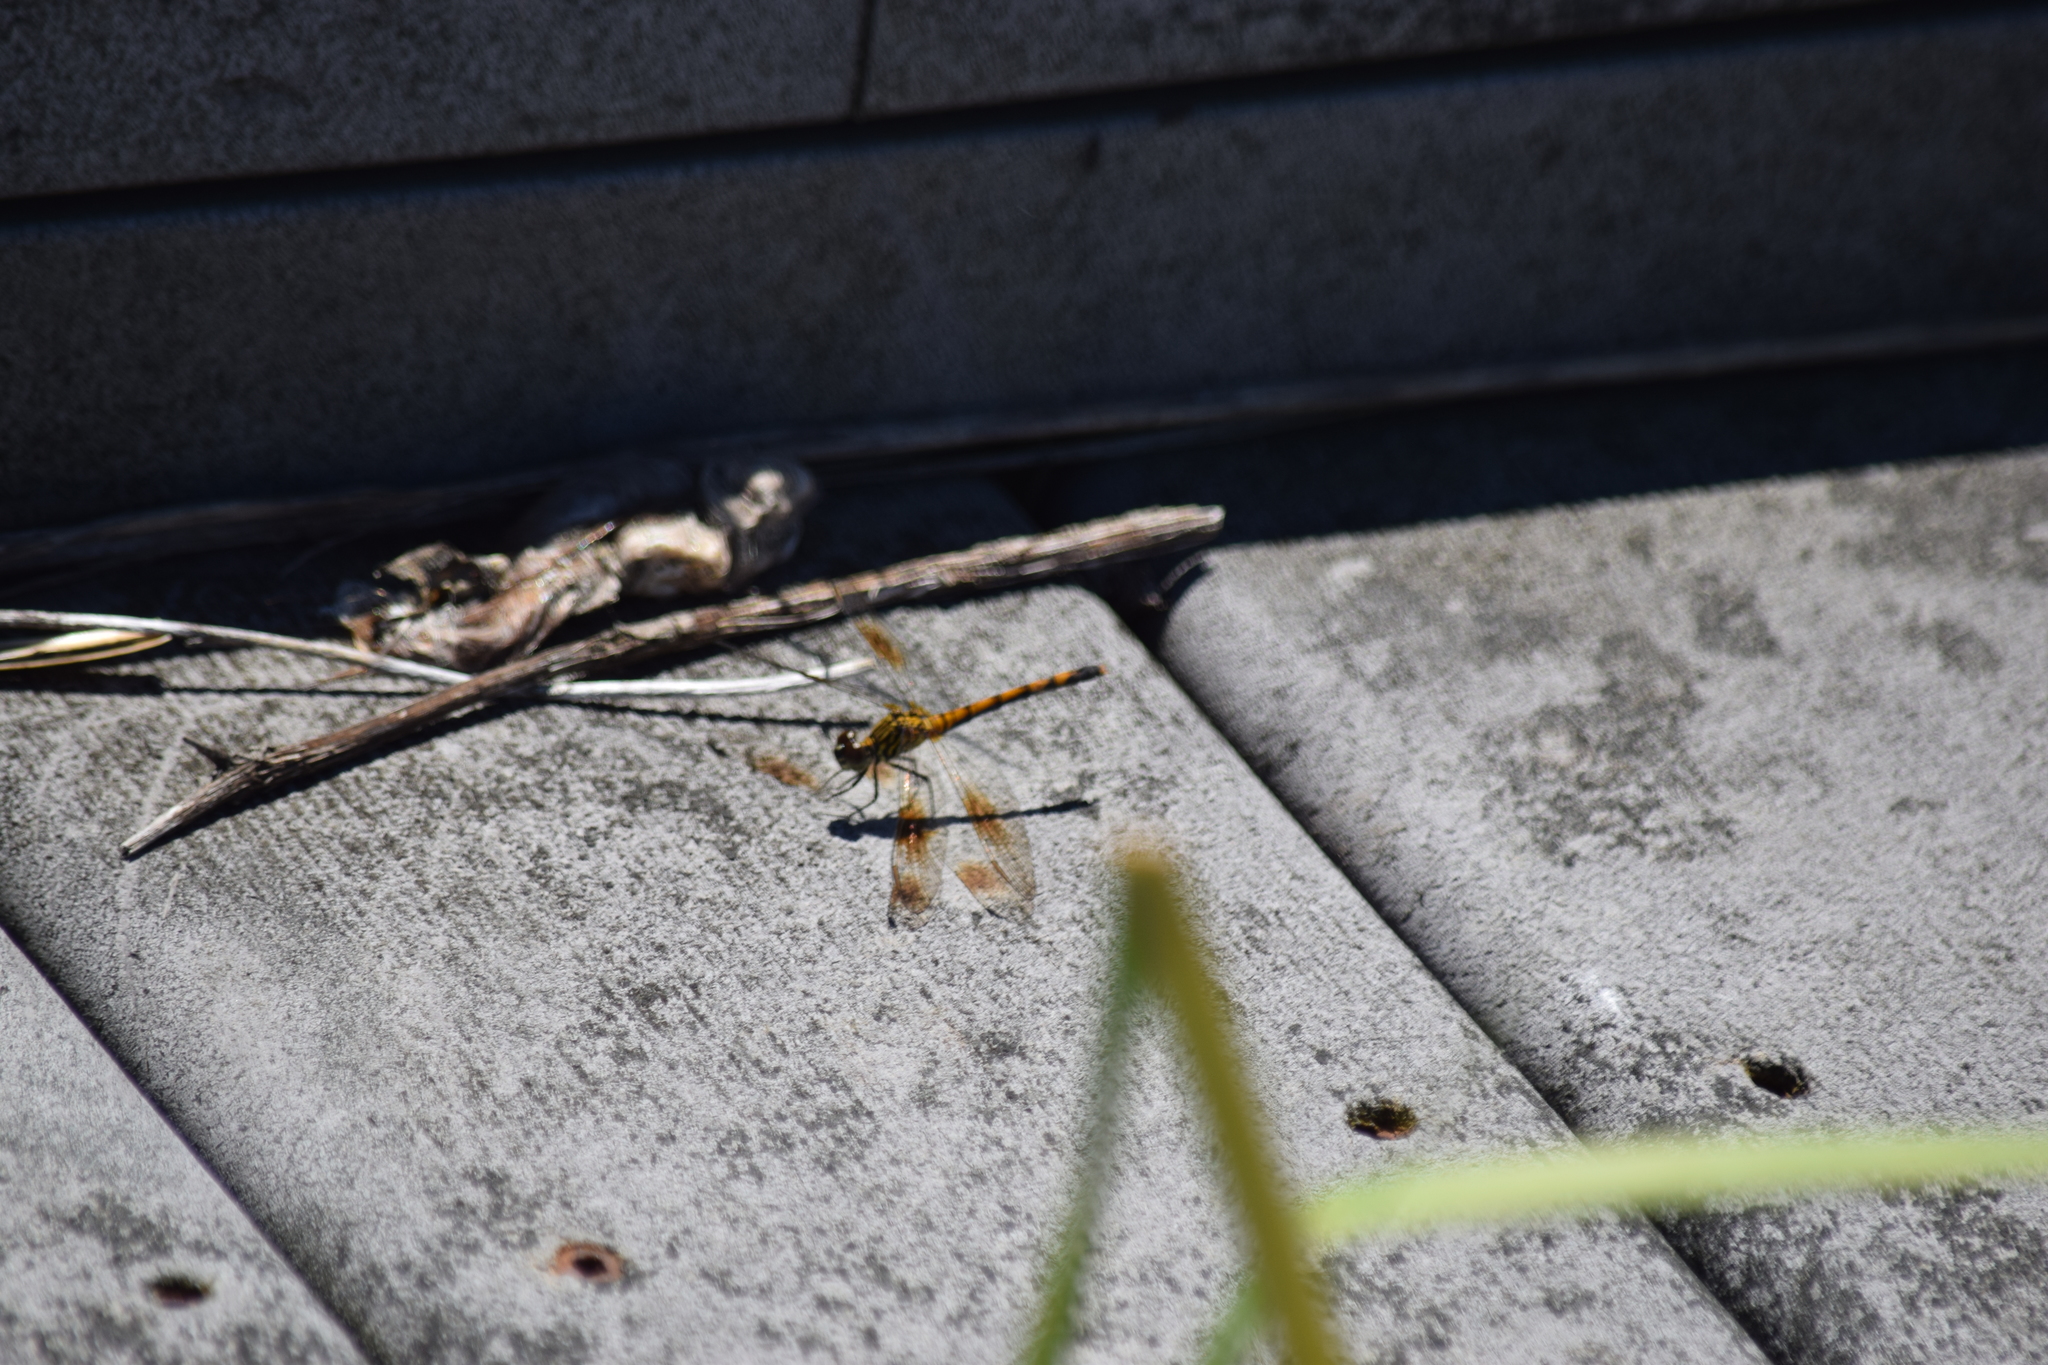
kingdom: Animalia
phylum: Arthropoda
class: Insecta
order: Odonata
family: Libellulidae
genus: Erythrodiplax
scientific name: Erythrodiplax berenice
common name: Seaside dragonlet
